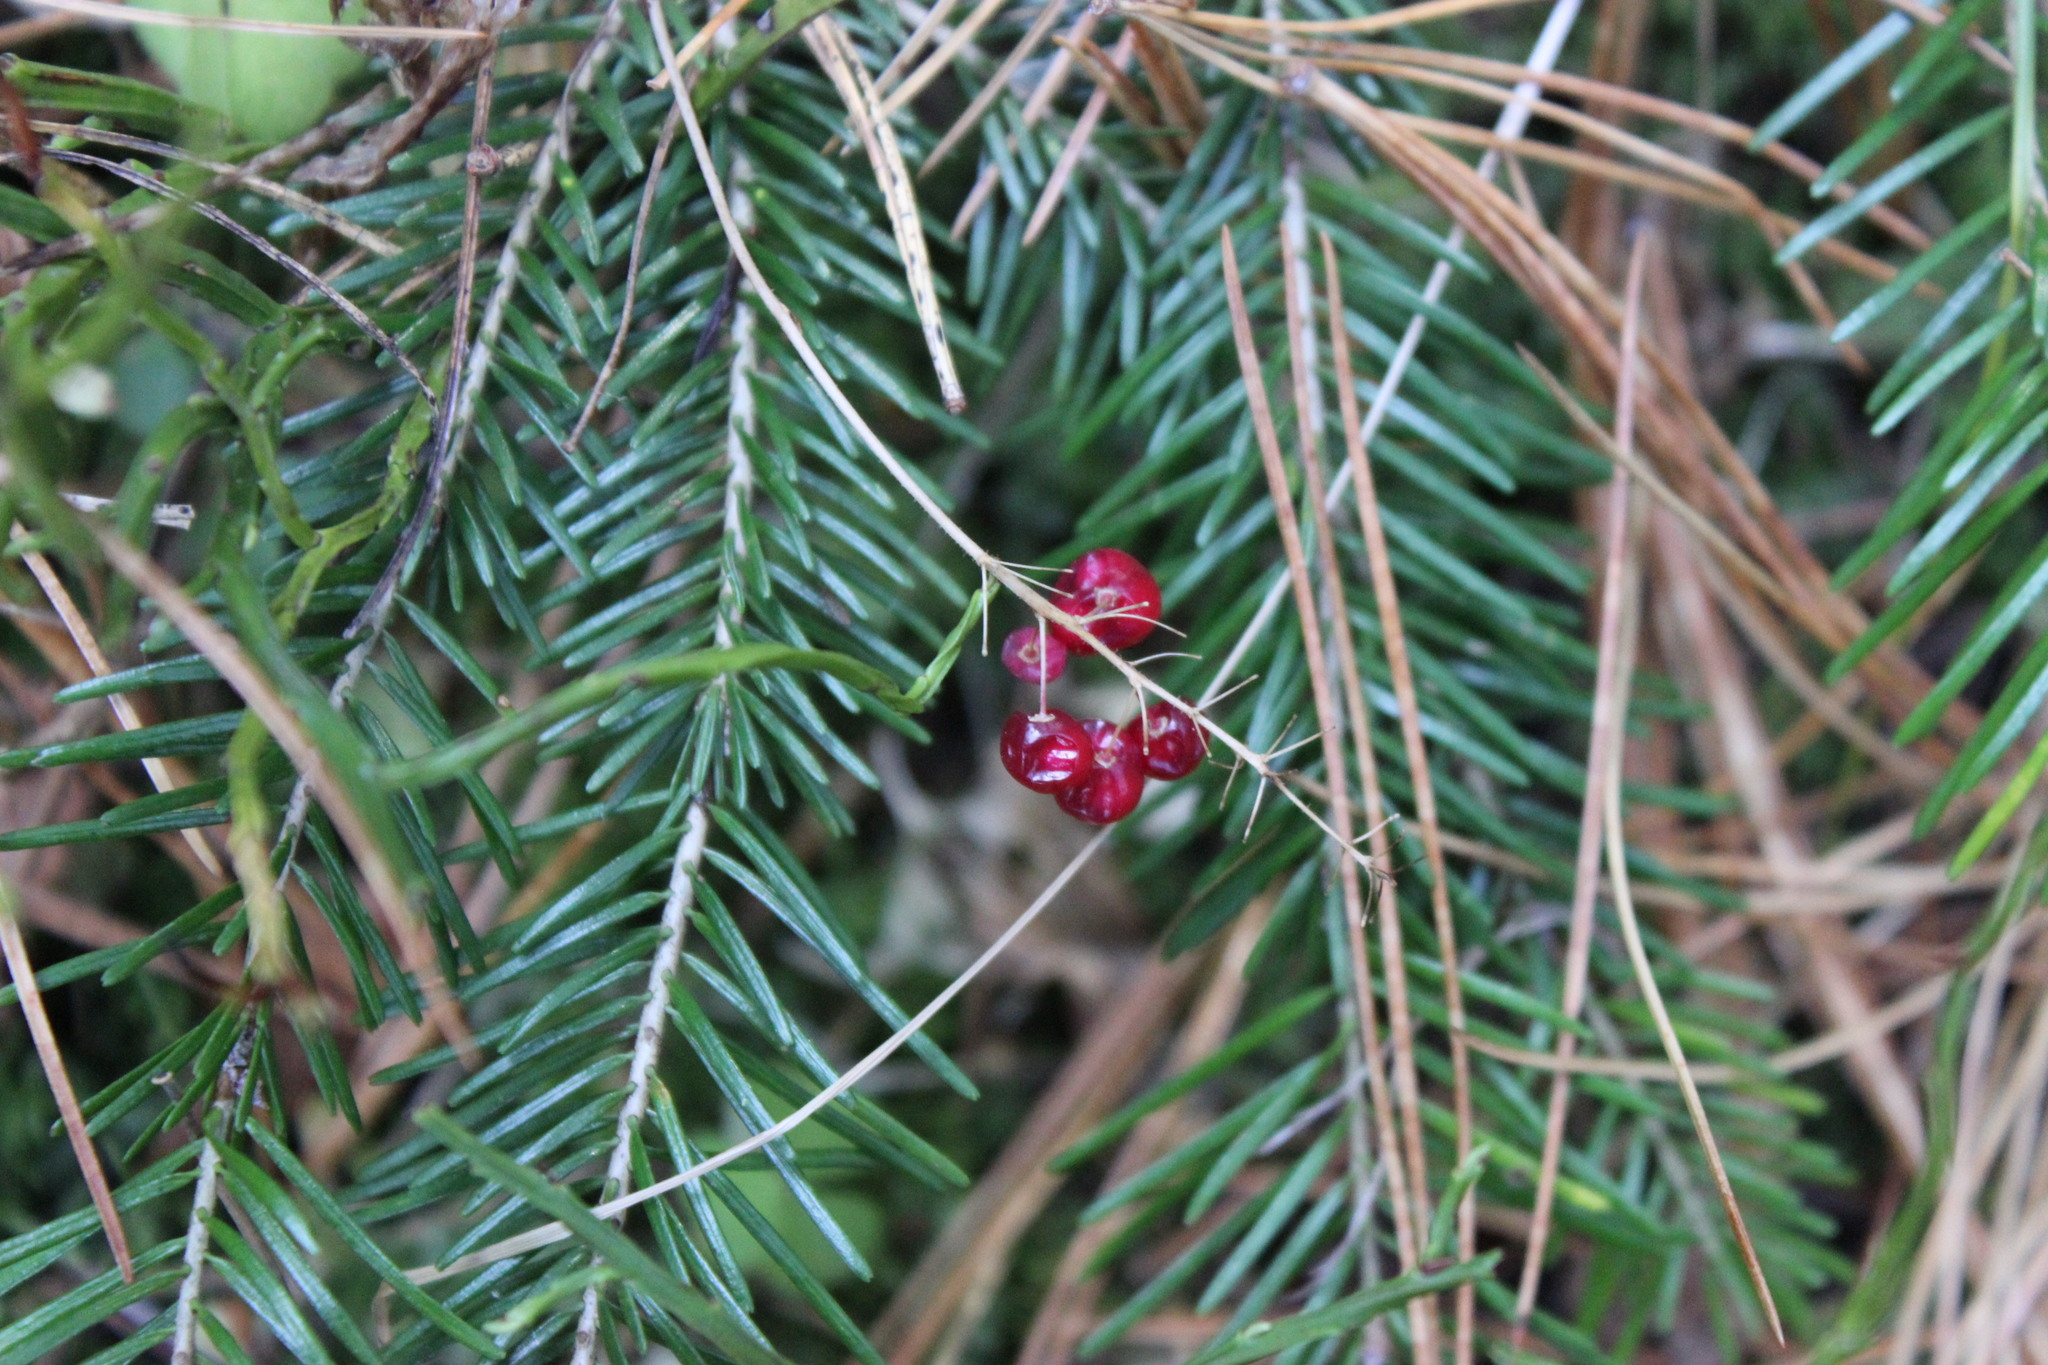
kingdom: Plantae
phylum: Tracheophyta
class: Liliopsida
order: Asparagales
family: Asparagaceae
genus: Maianthemum
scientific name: Maianthemum bifolium
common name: May lily
